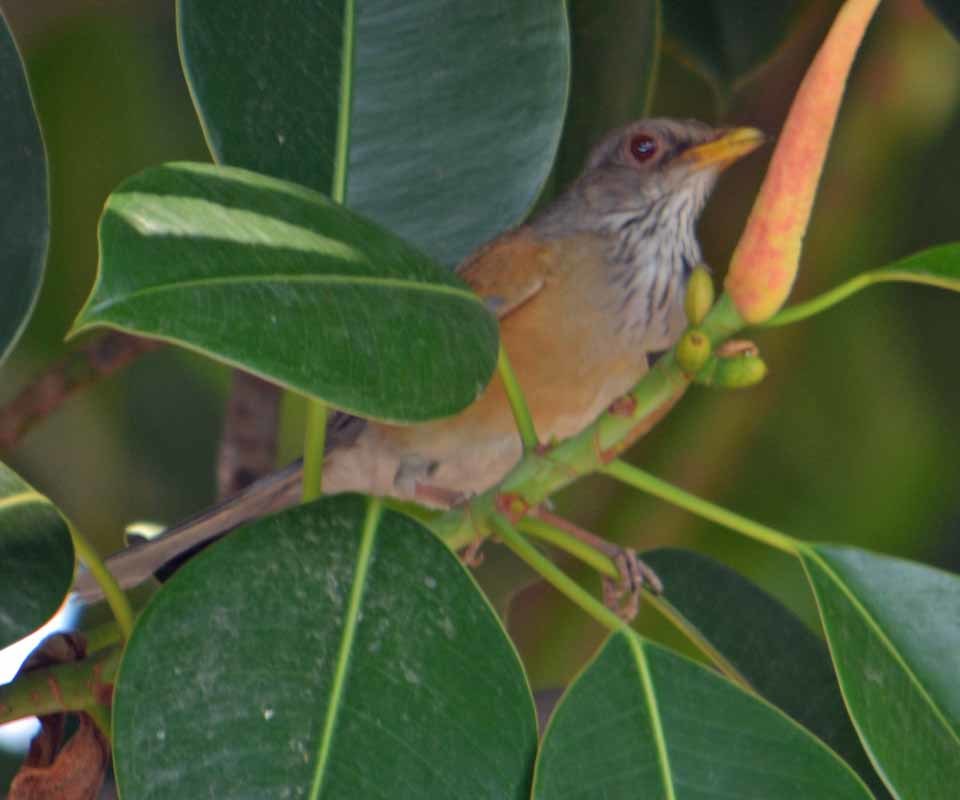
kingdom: Animalia
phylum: Chordata
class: Aves
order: Passeriformes
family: Turdidae
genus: Turdus
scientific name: Turdus rufopalliatus
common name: Rufous-backed robin
